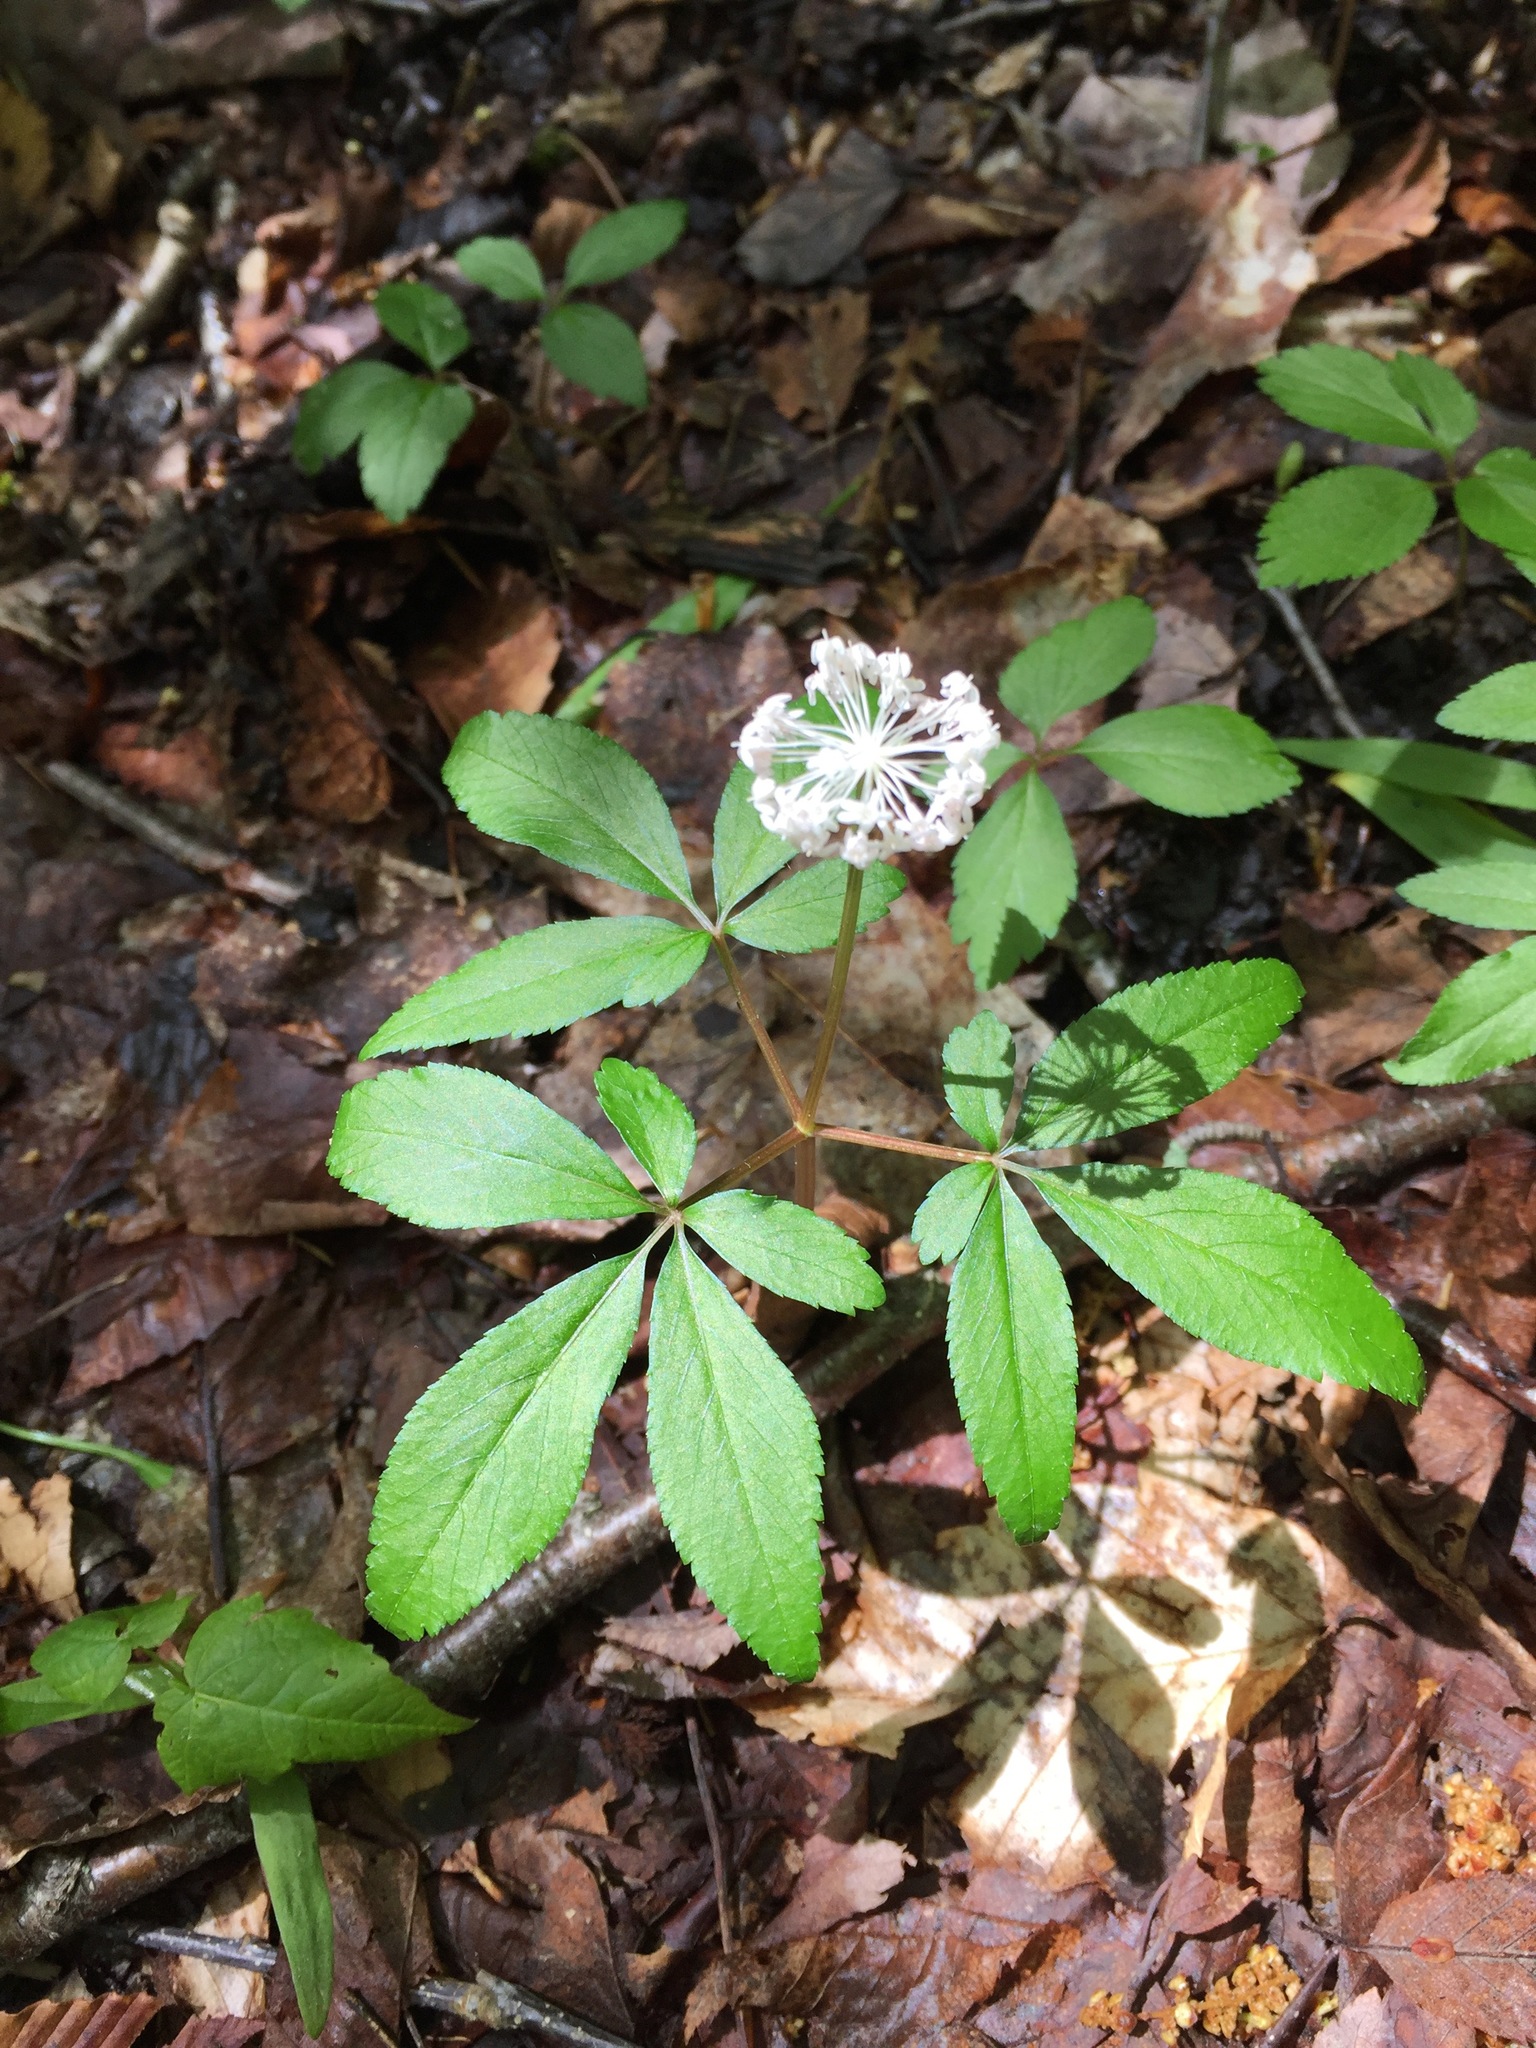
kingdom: Plantae
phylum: Tracheophyta
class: Magnoliopsida
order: Apiales
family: Araliaceae
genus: Panax
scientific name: Panax trifolius
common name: Dwarf ginseng
